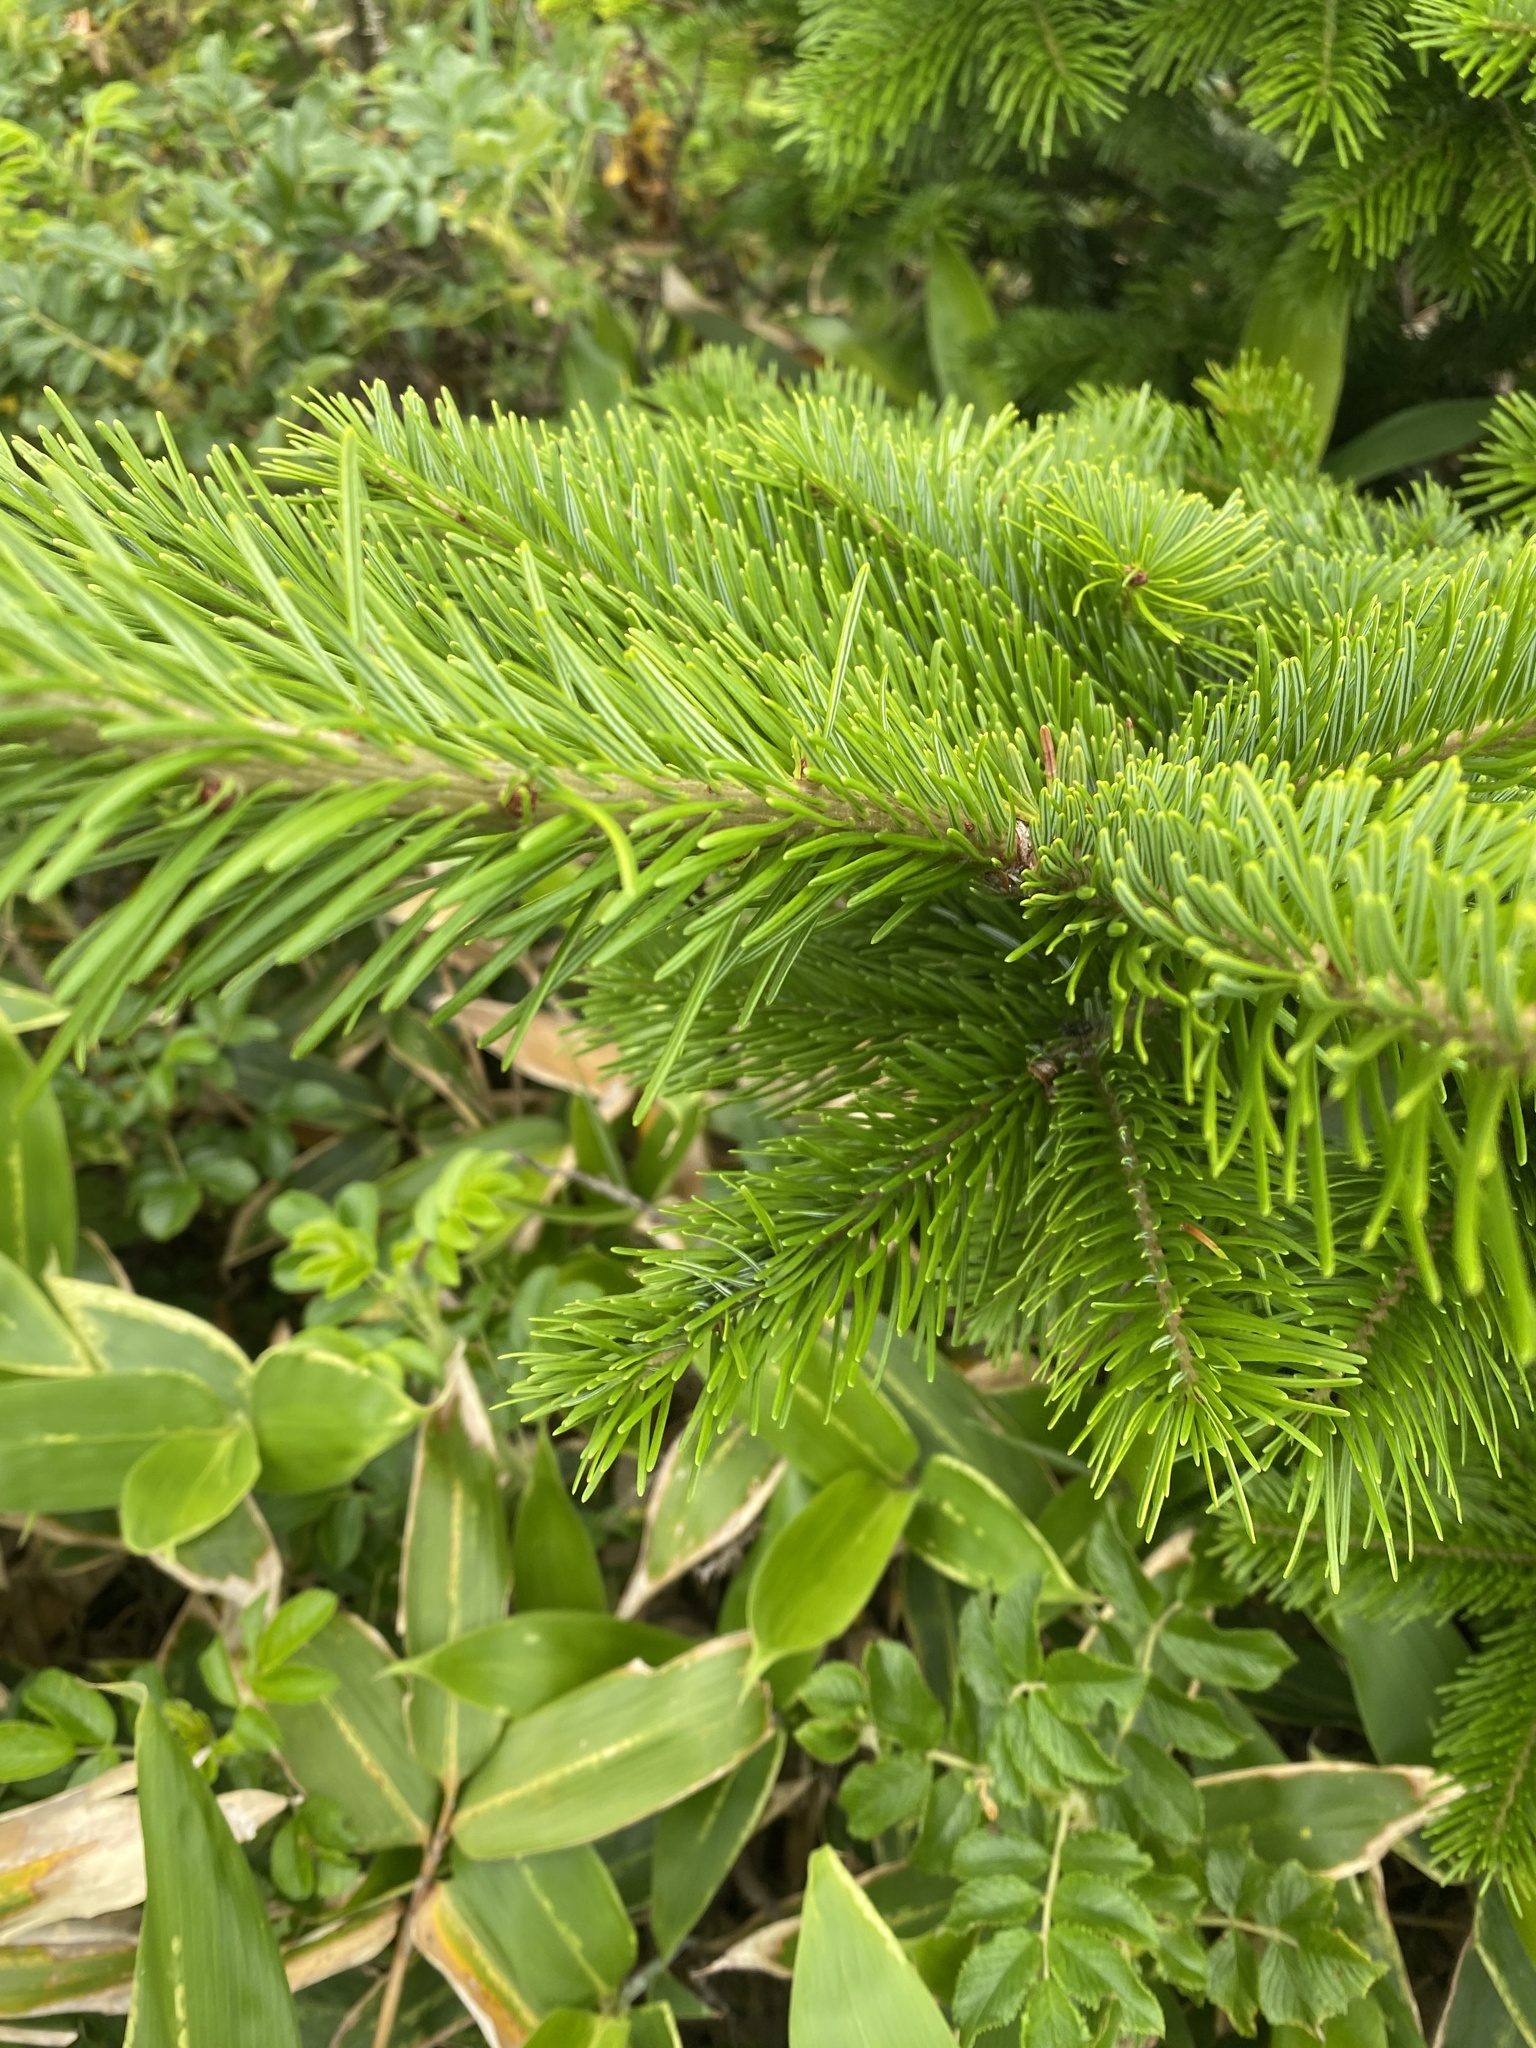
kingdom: Plantae
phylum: Tracheophyta
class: Pinopsida
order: Pinales
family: Pinaceae
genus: Abies
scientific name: Abies sachalinensis
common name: Sakhalin fir
